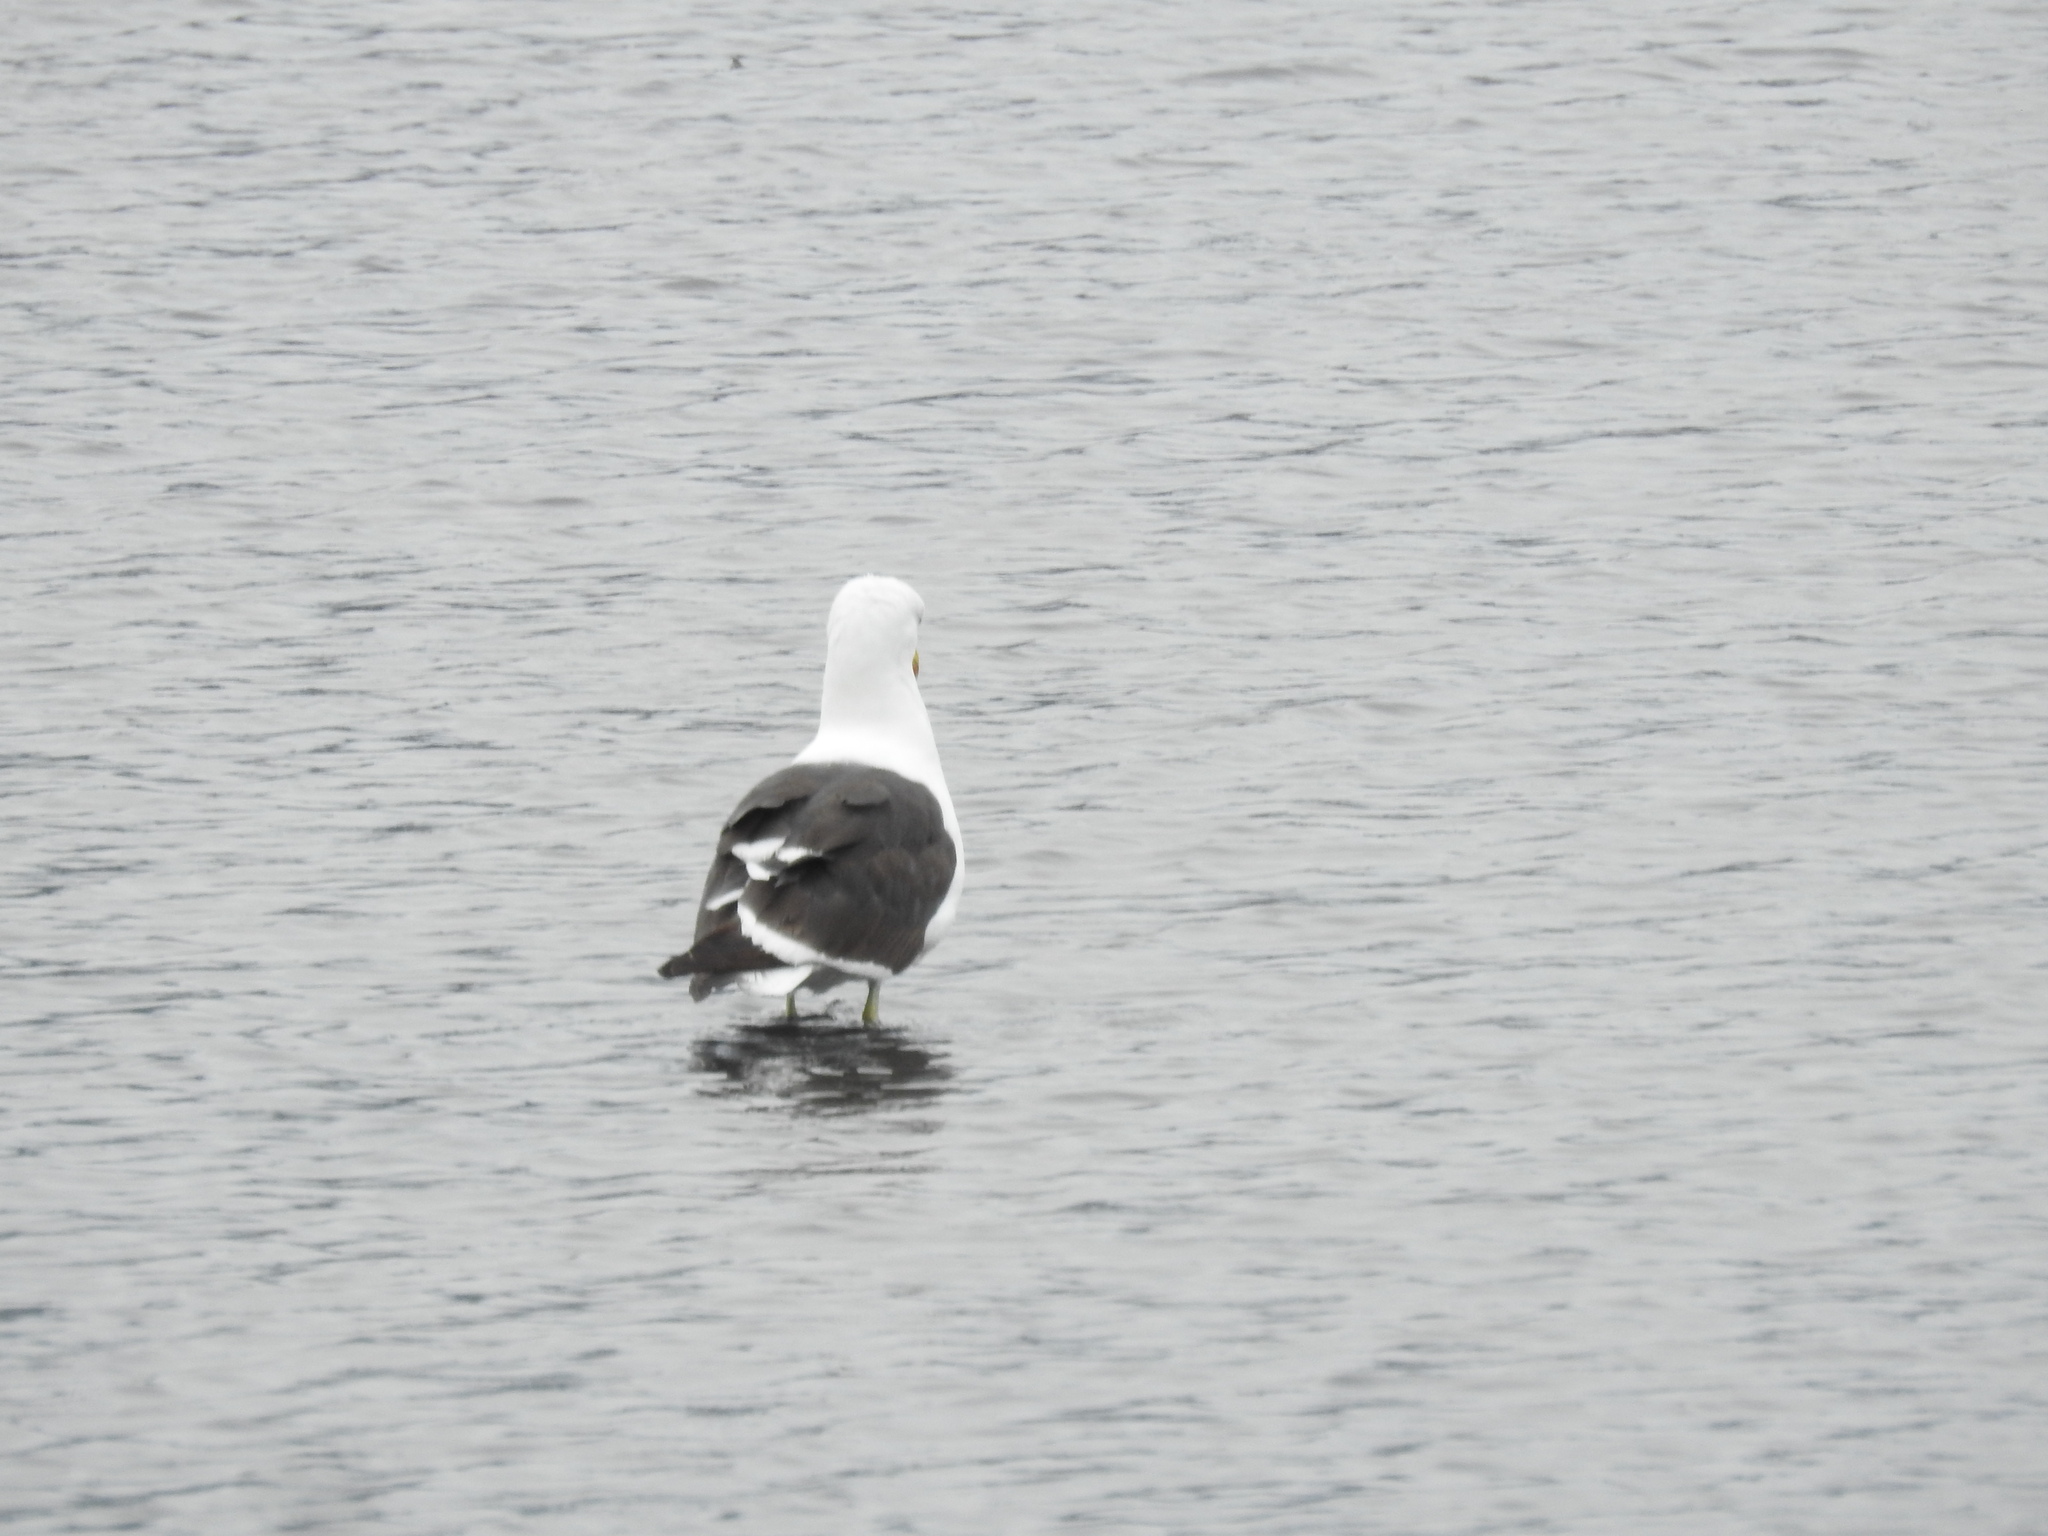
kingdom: Animalia
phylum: Chordata
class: Aves
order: Charadriiformes
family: Laridae
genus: Larus
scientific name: Larus dominicanus
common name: Kelp gull
